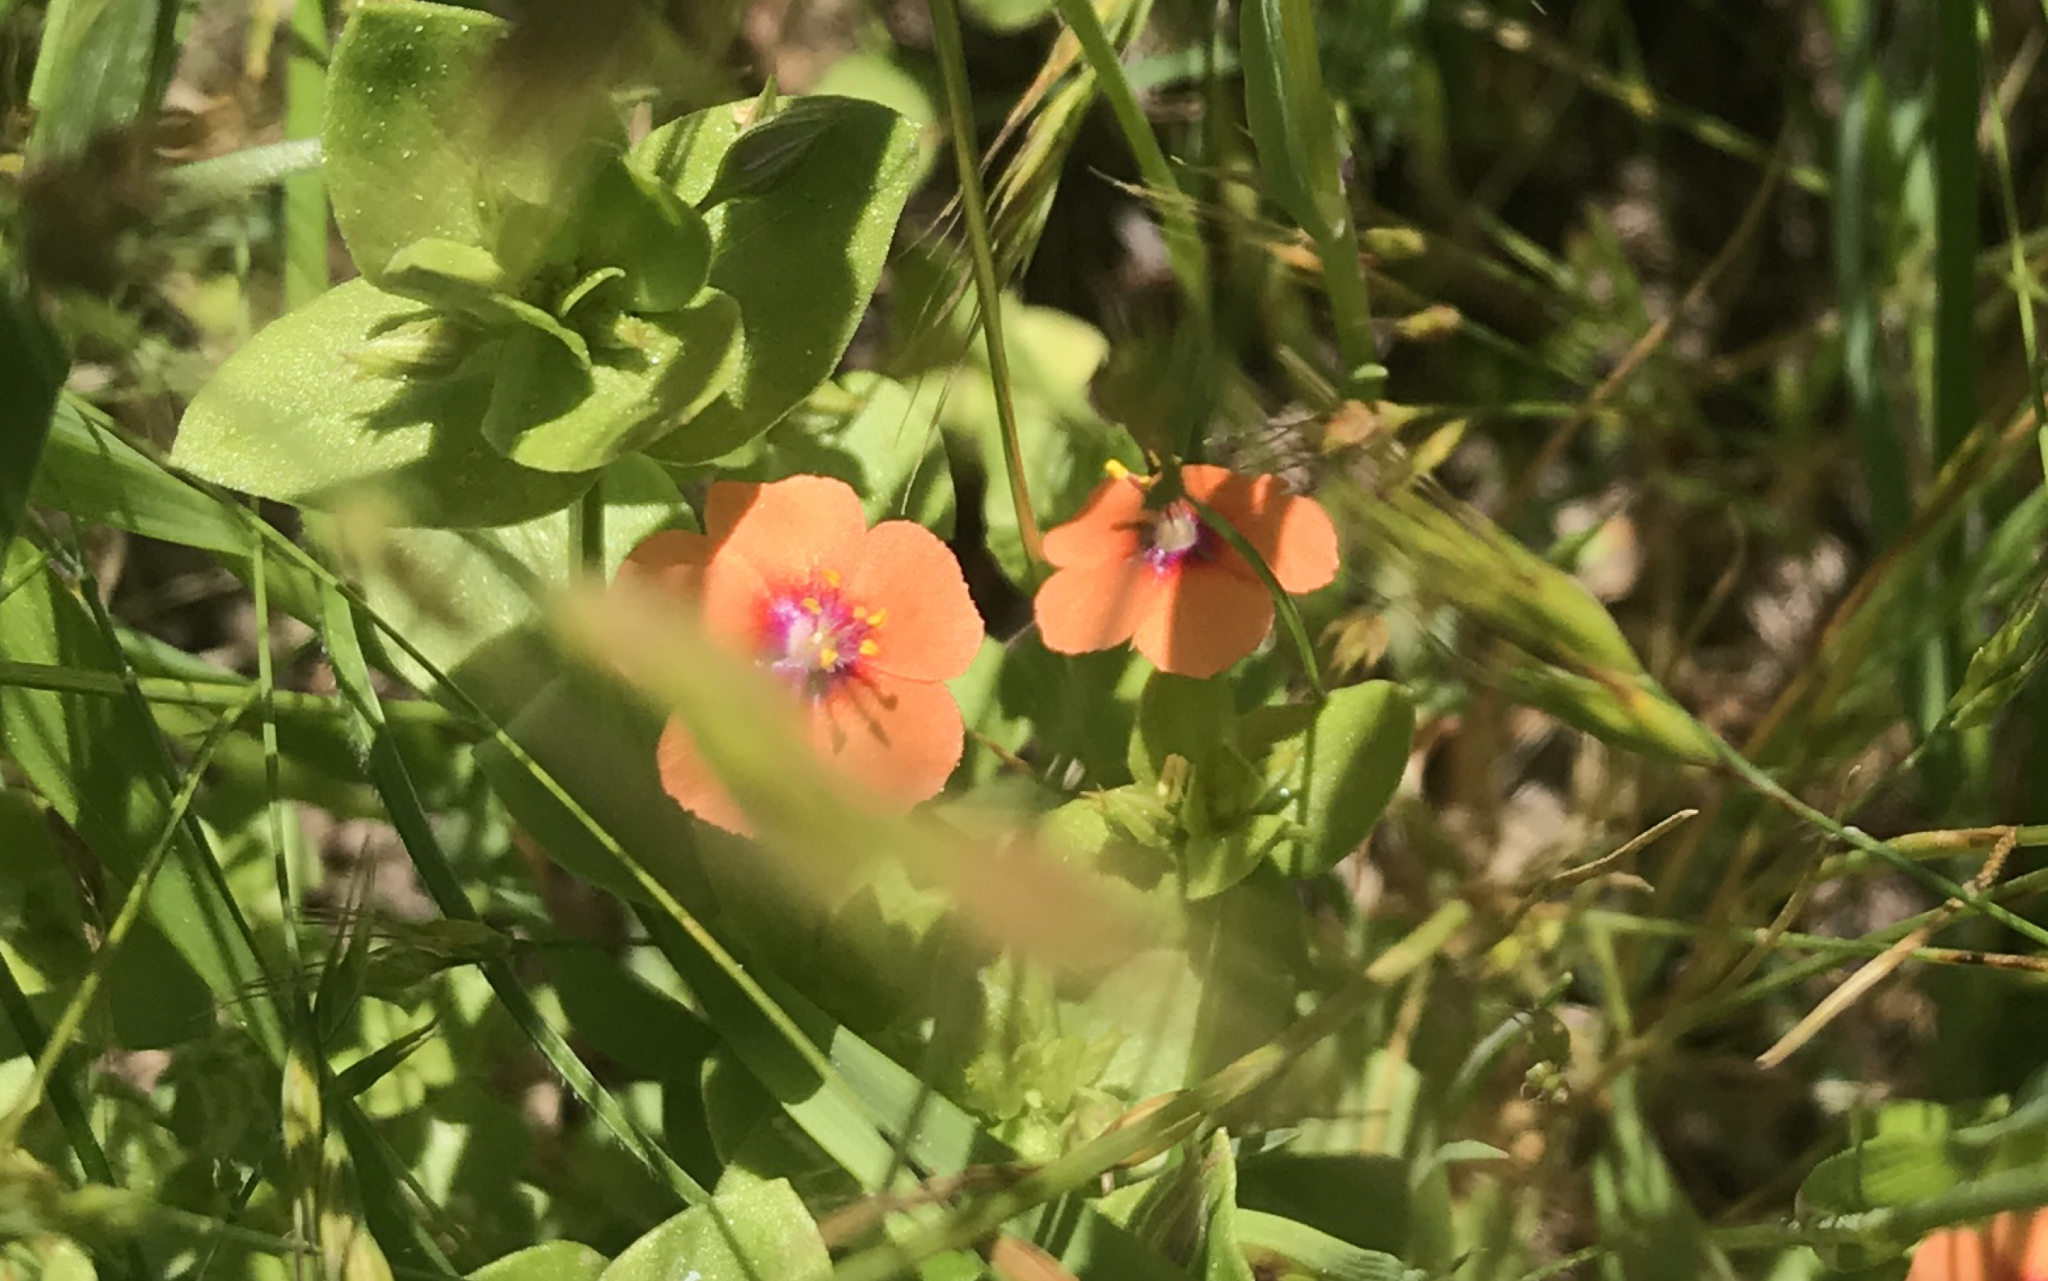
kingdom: Plantae
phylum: Tracheophyta
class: Magnoliopsida
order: Ericales
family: Primulaceae
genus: Lysimachia
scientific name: Lysimachia arvensis
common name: Scarlet pimpernel
